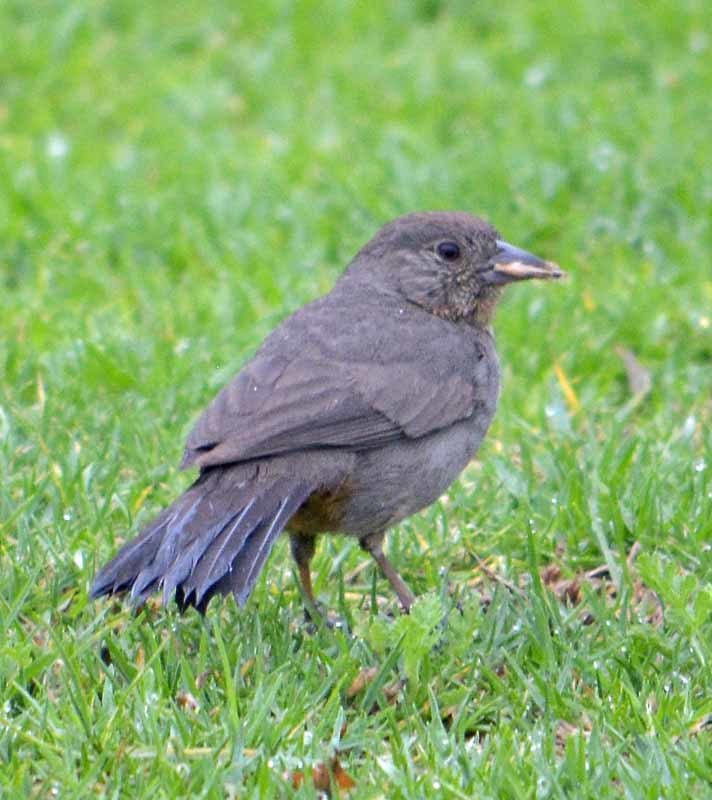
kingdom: Animalia
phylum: Chordata
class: Aves
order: Passeriformes
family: Passerellidae
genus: Melozone
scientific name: Melozone fusca
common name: Canyon towhee
